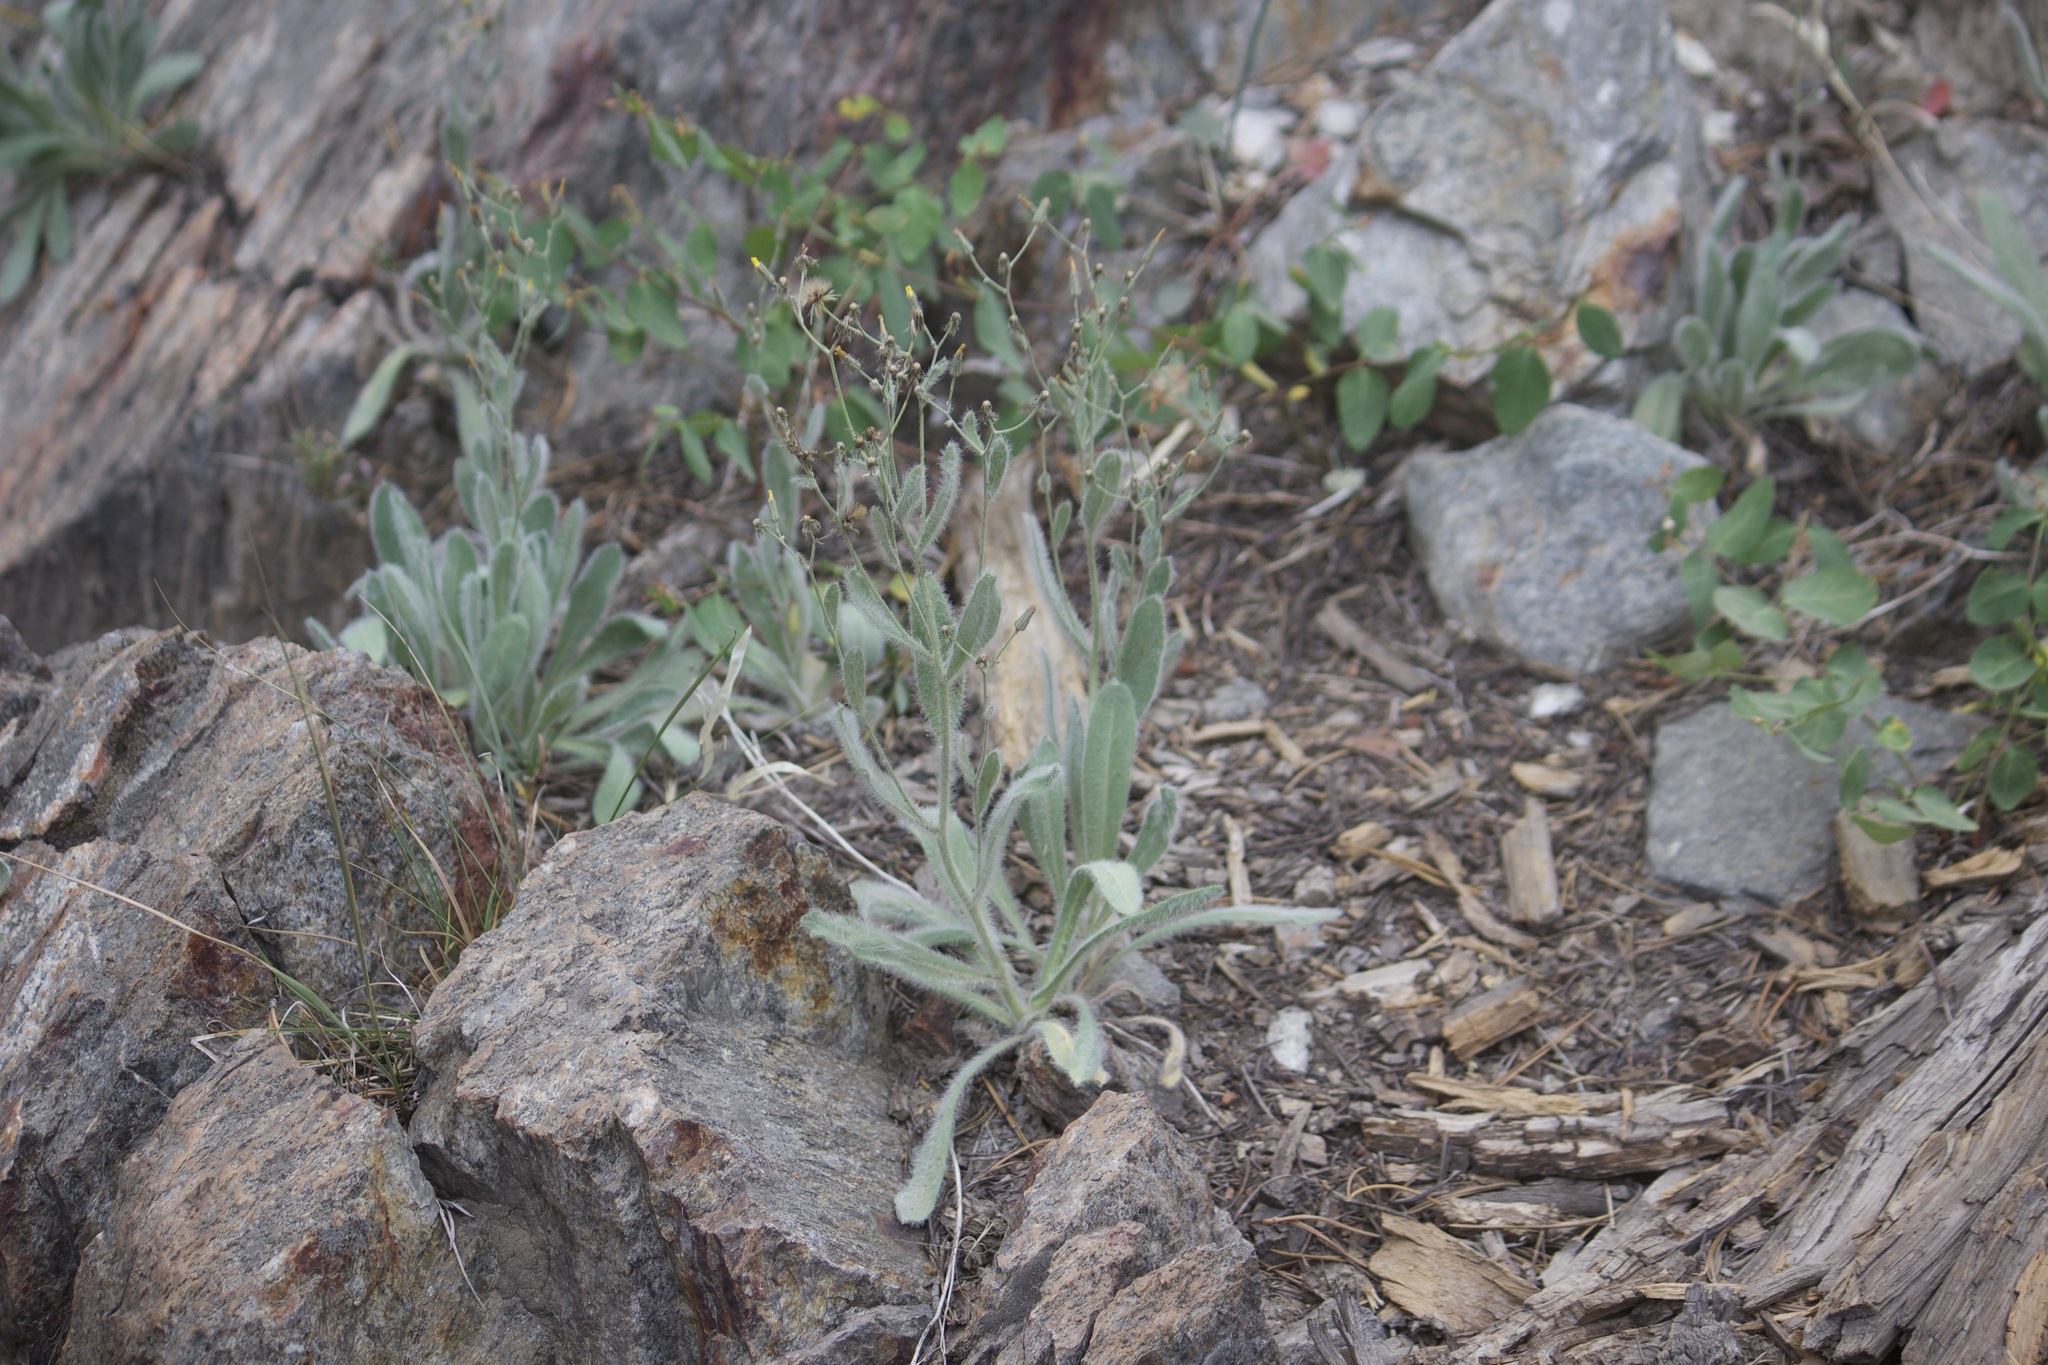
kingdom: Plantae
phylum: Tracheophyta
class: Magnoliopsida
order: Asterales
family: Asteraceae
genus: Hieracium
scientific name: Hieracium horridum
